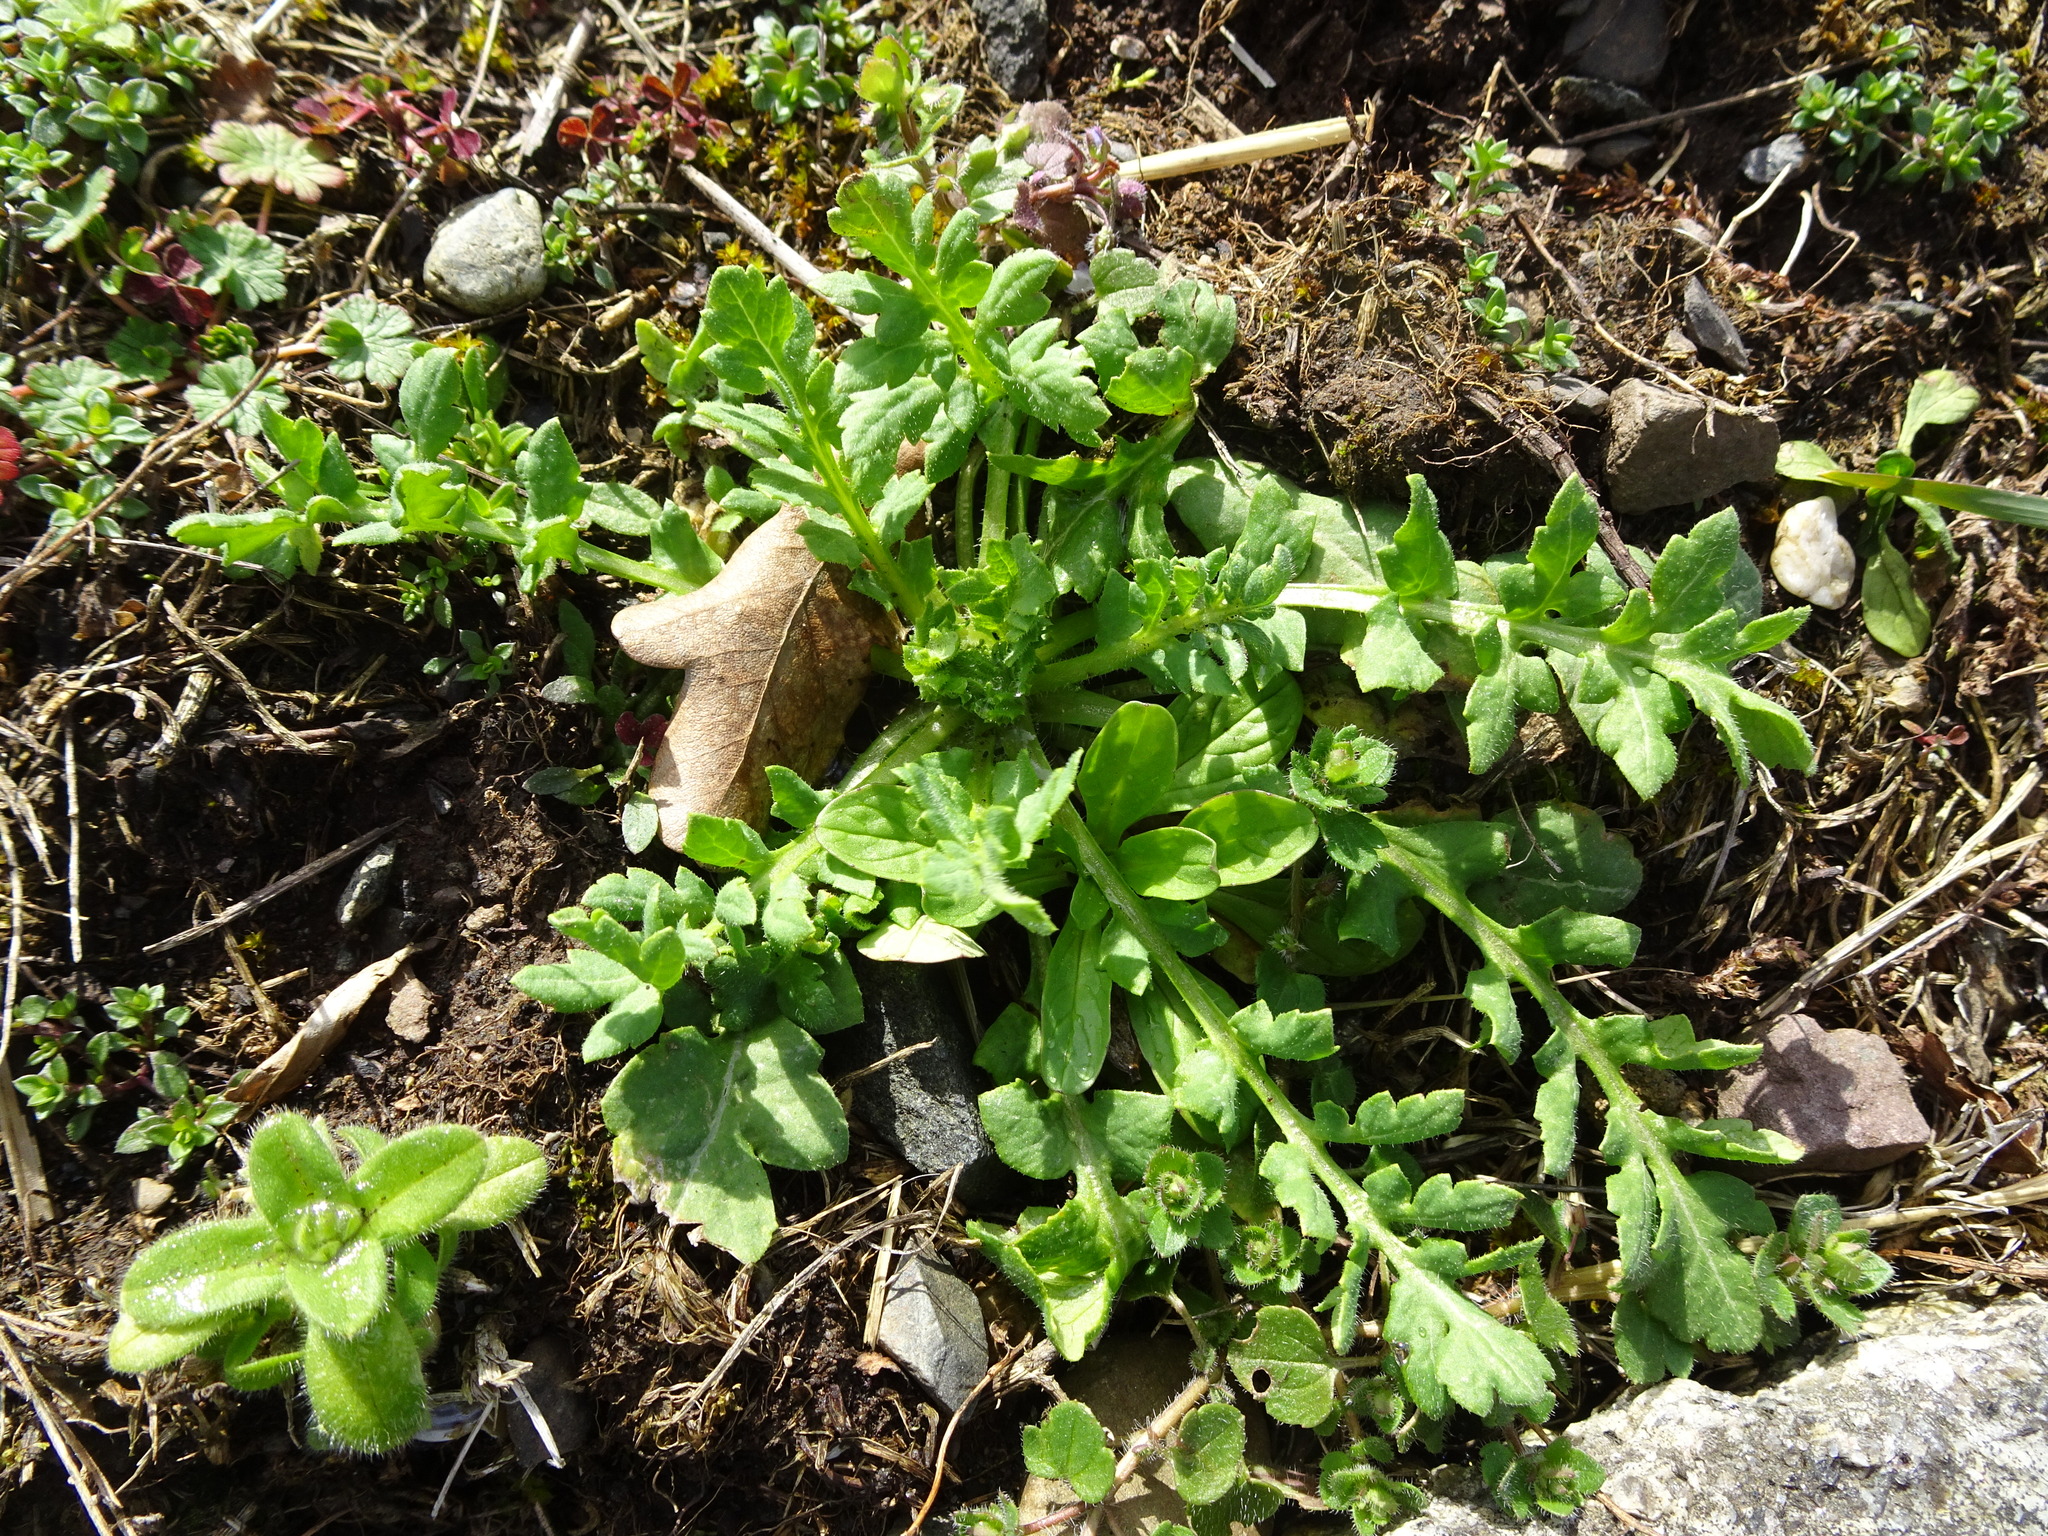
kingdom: Plantae
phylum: Tracheophyta
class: Magnoliopsida
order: Ranunculales
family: Papaveraceae
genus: Papaver
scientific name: Papaver rhoeas
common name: Corn poppy
